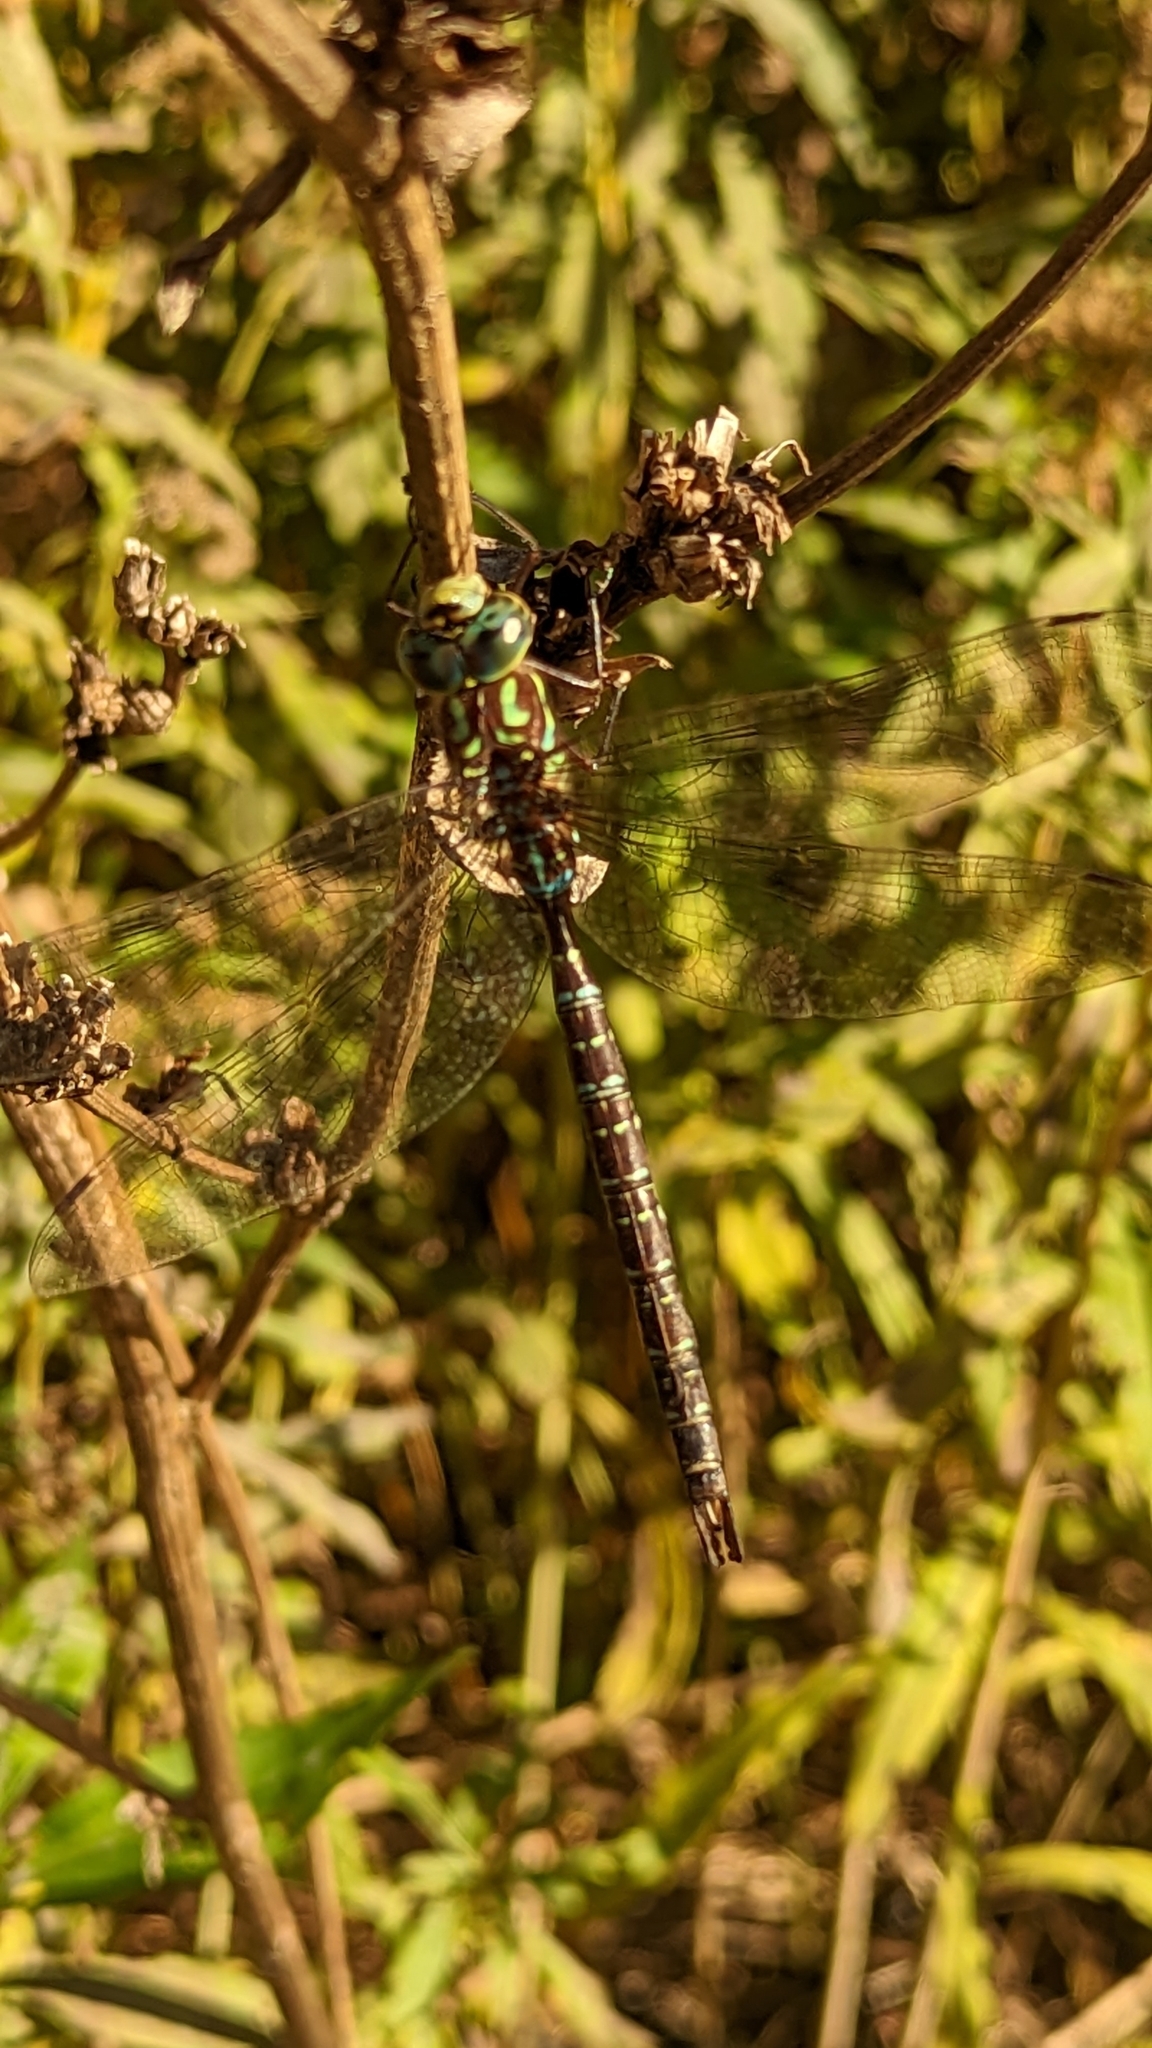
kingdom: Animalia
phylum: Arthropoda
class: Insecta
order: Odonata
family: Aeshnidae
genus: Aeshna
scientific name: Aeshna umbrosa
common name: Shadow darner
